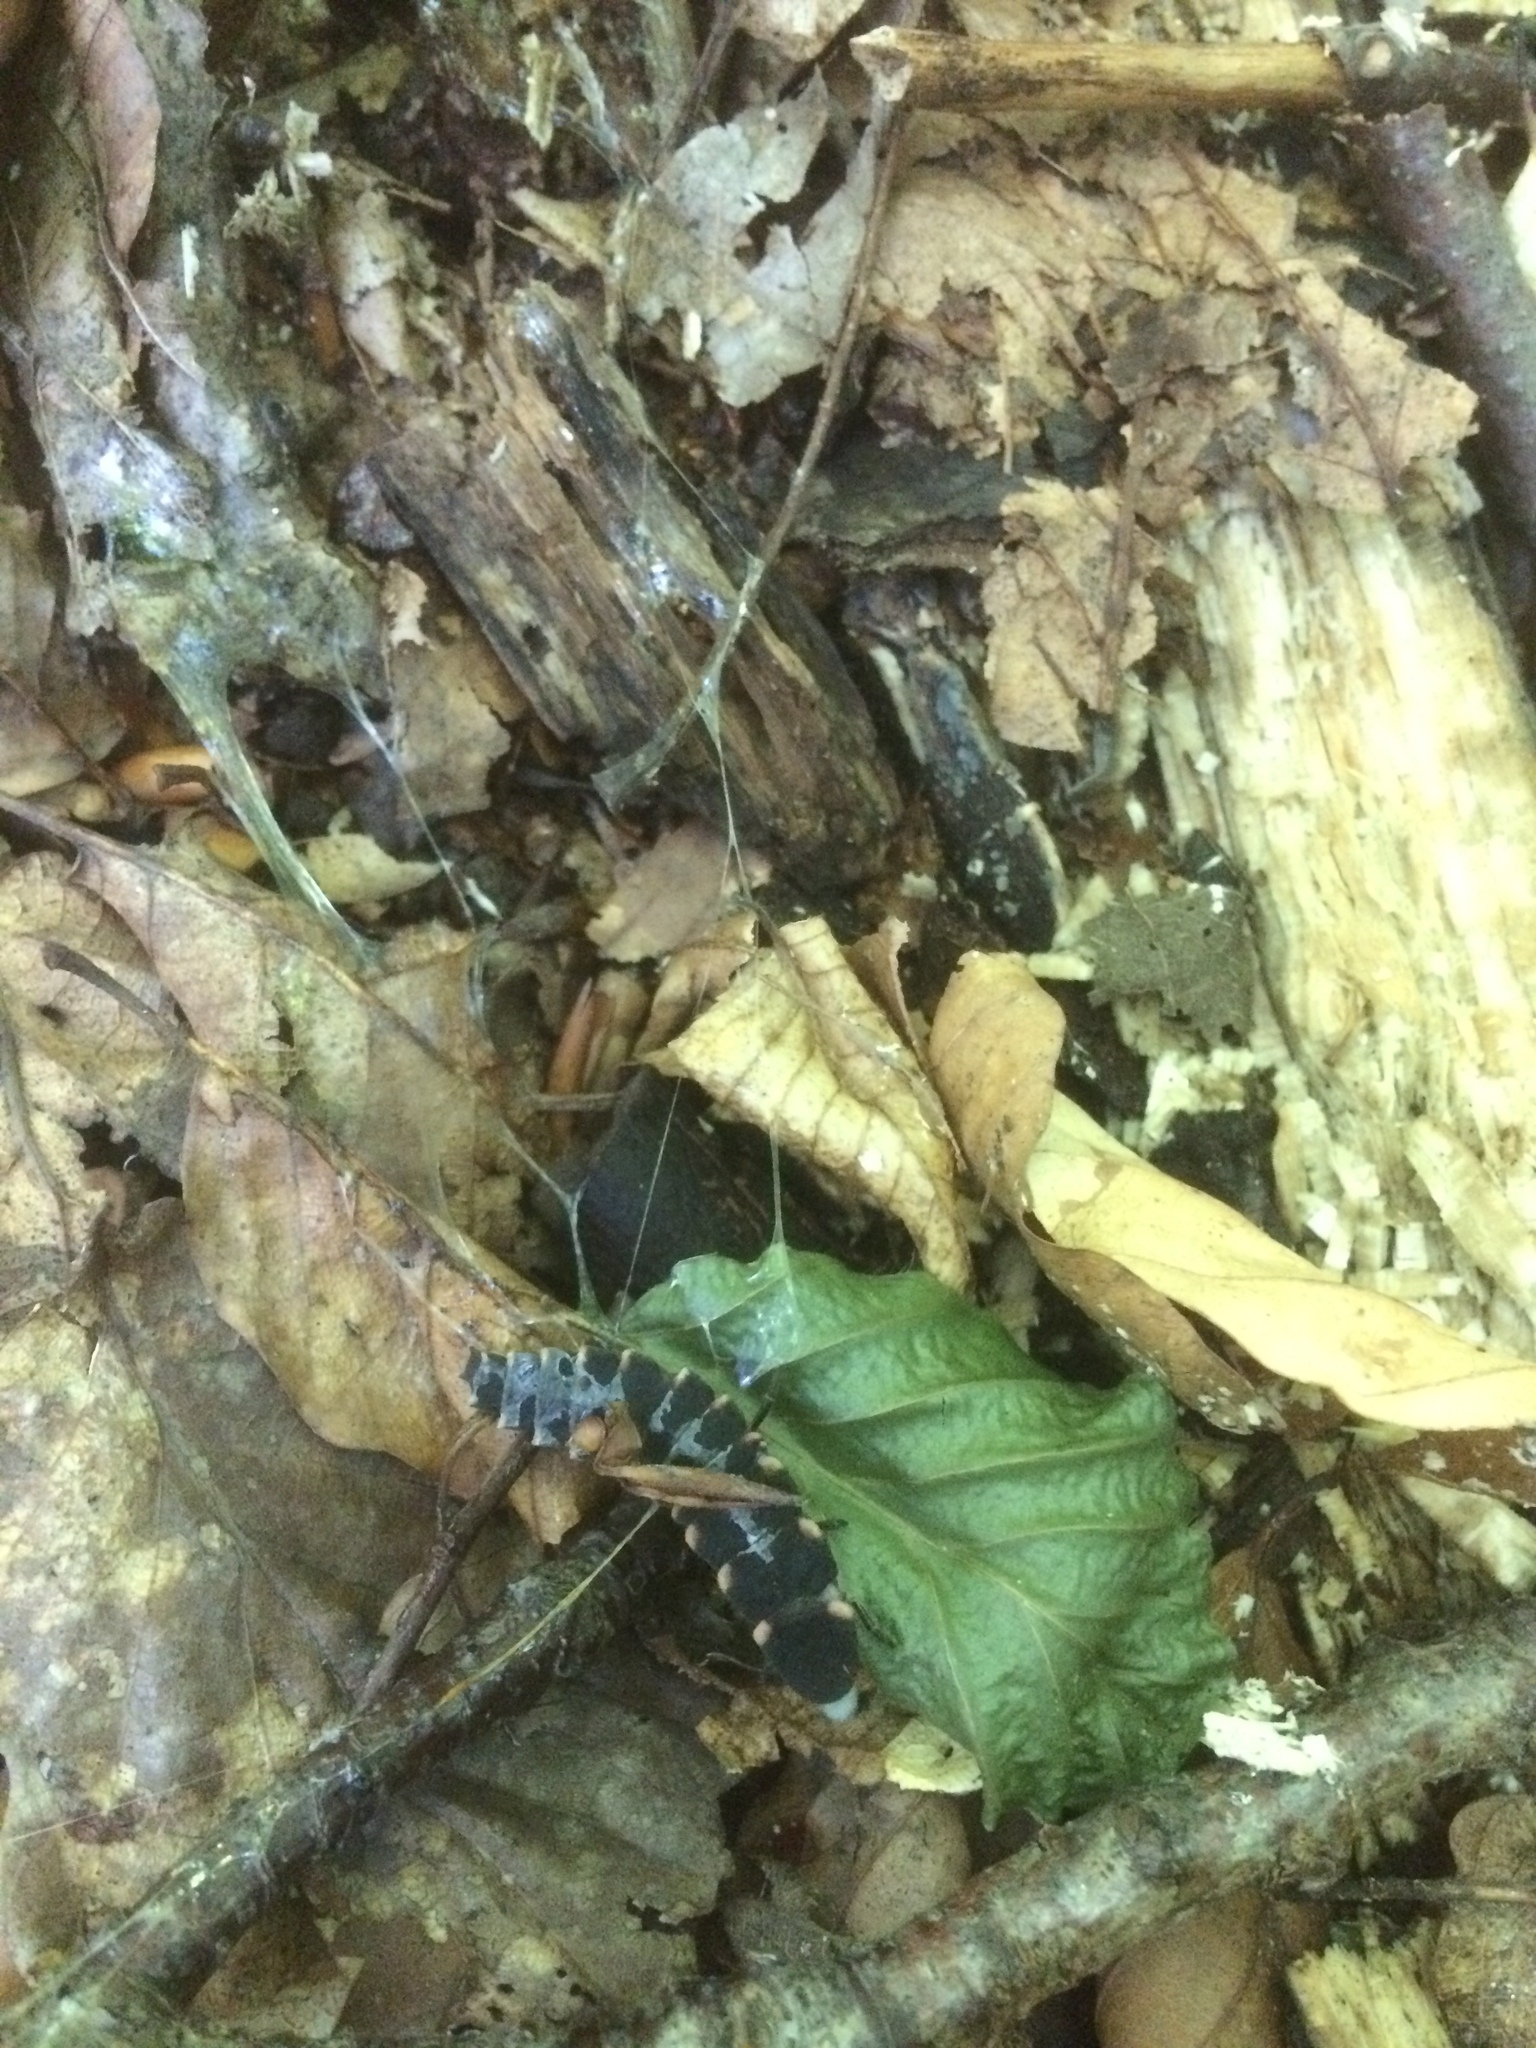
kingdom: Animalia
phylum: Arthropoda
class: Insecta
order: Coleoptera
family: Lampyridae
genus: Lampyris
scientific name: Lampyris noctiluca
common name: Glow-worm
